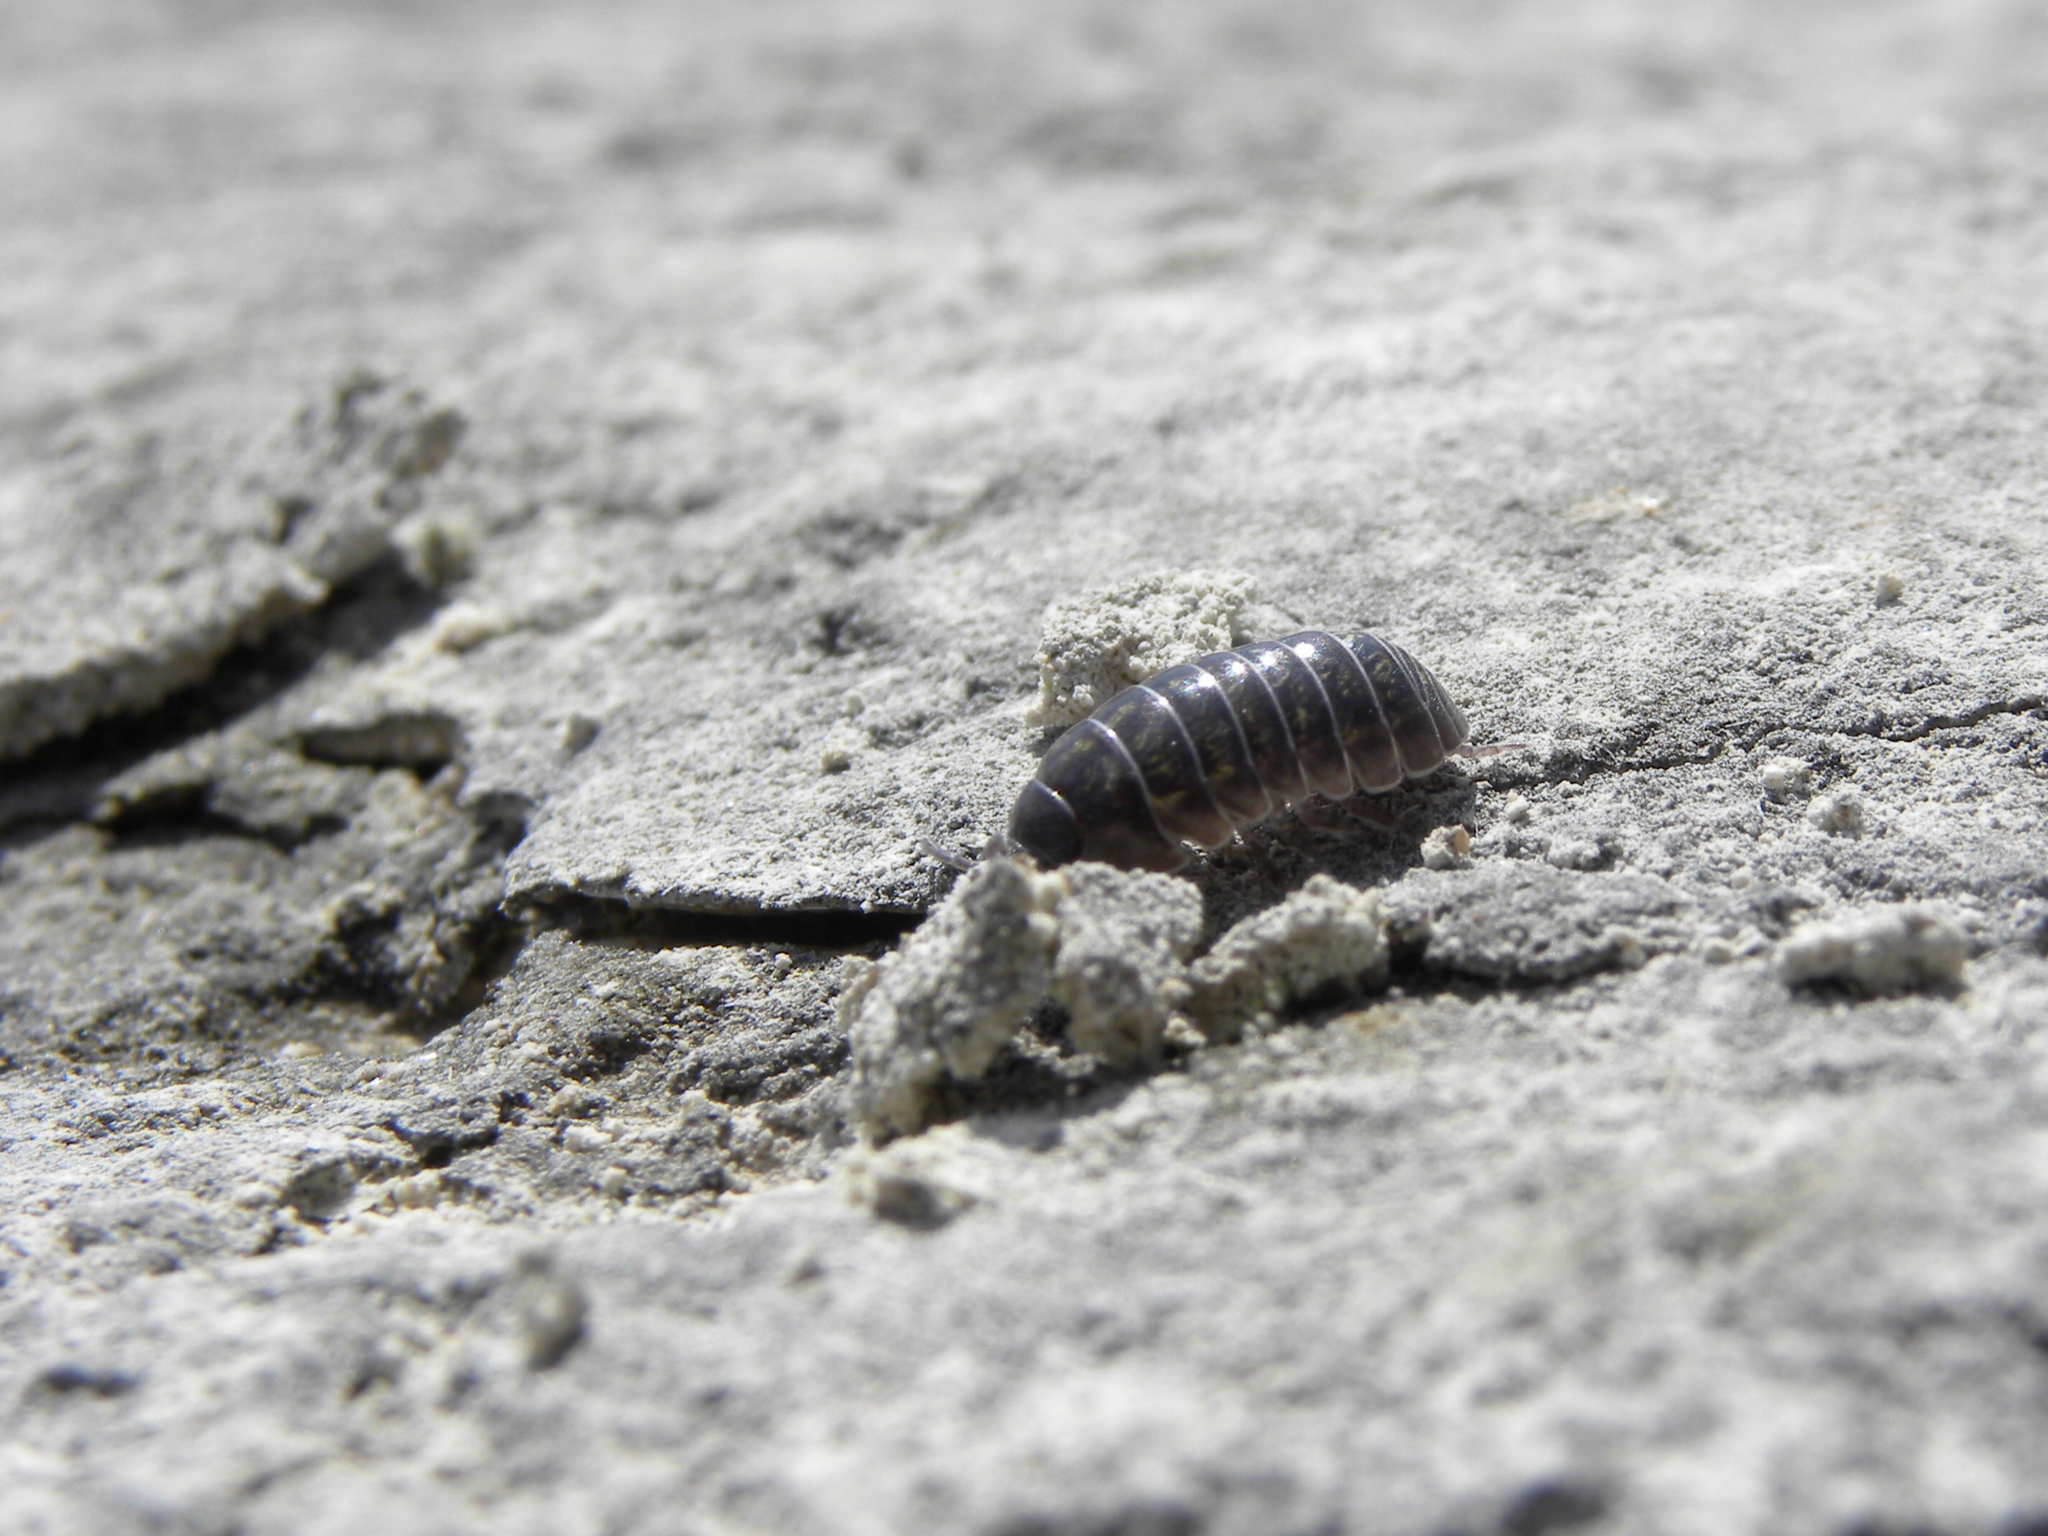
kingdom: Animalia
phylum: Arthropoda
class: Malacostraca
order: Isopoda
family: Armadillidiidae
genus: Armadillidium
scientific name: Armadillidium vulgare
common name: Common pill woodlouse
